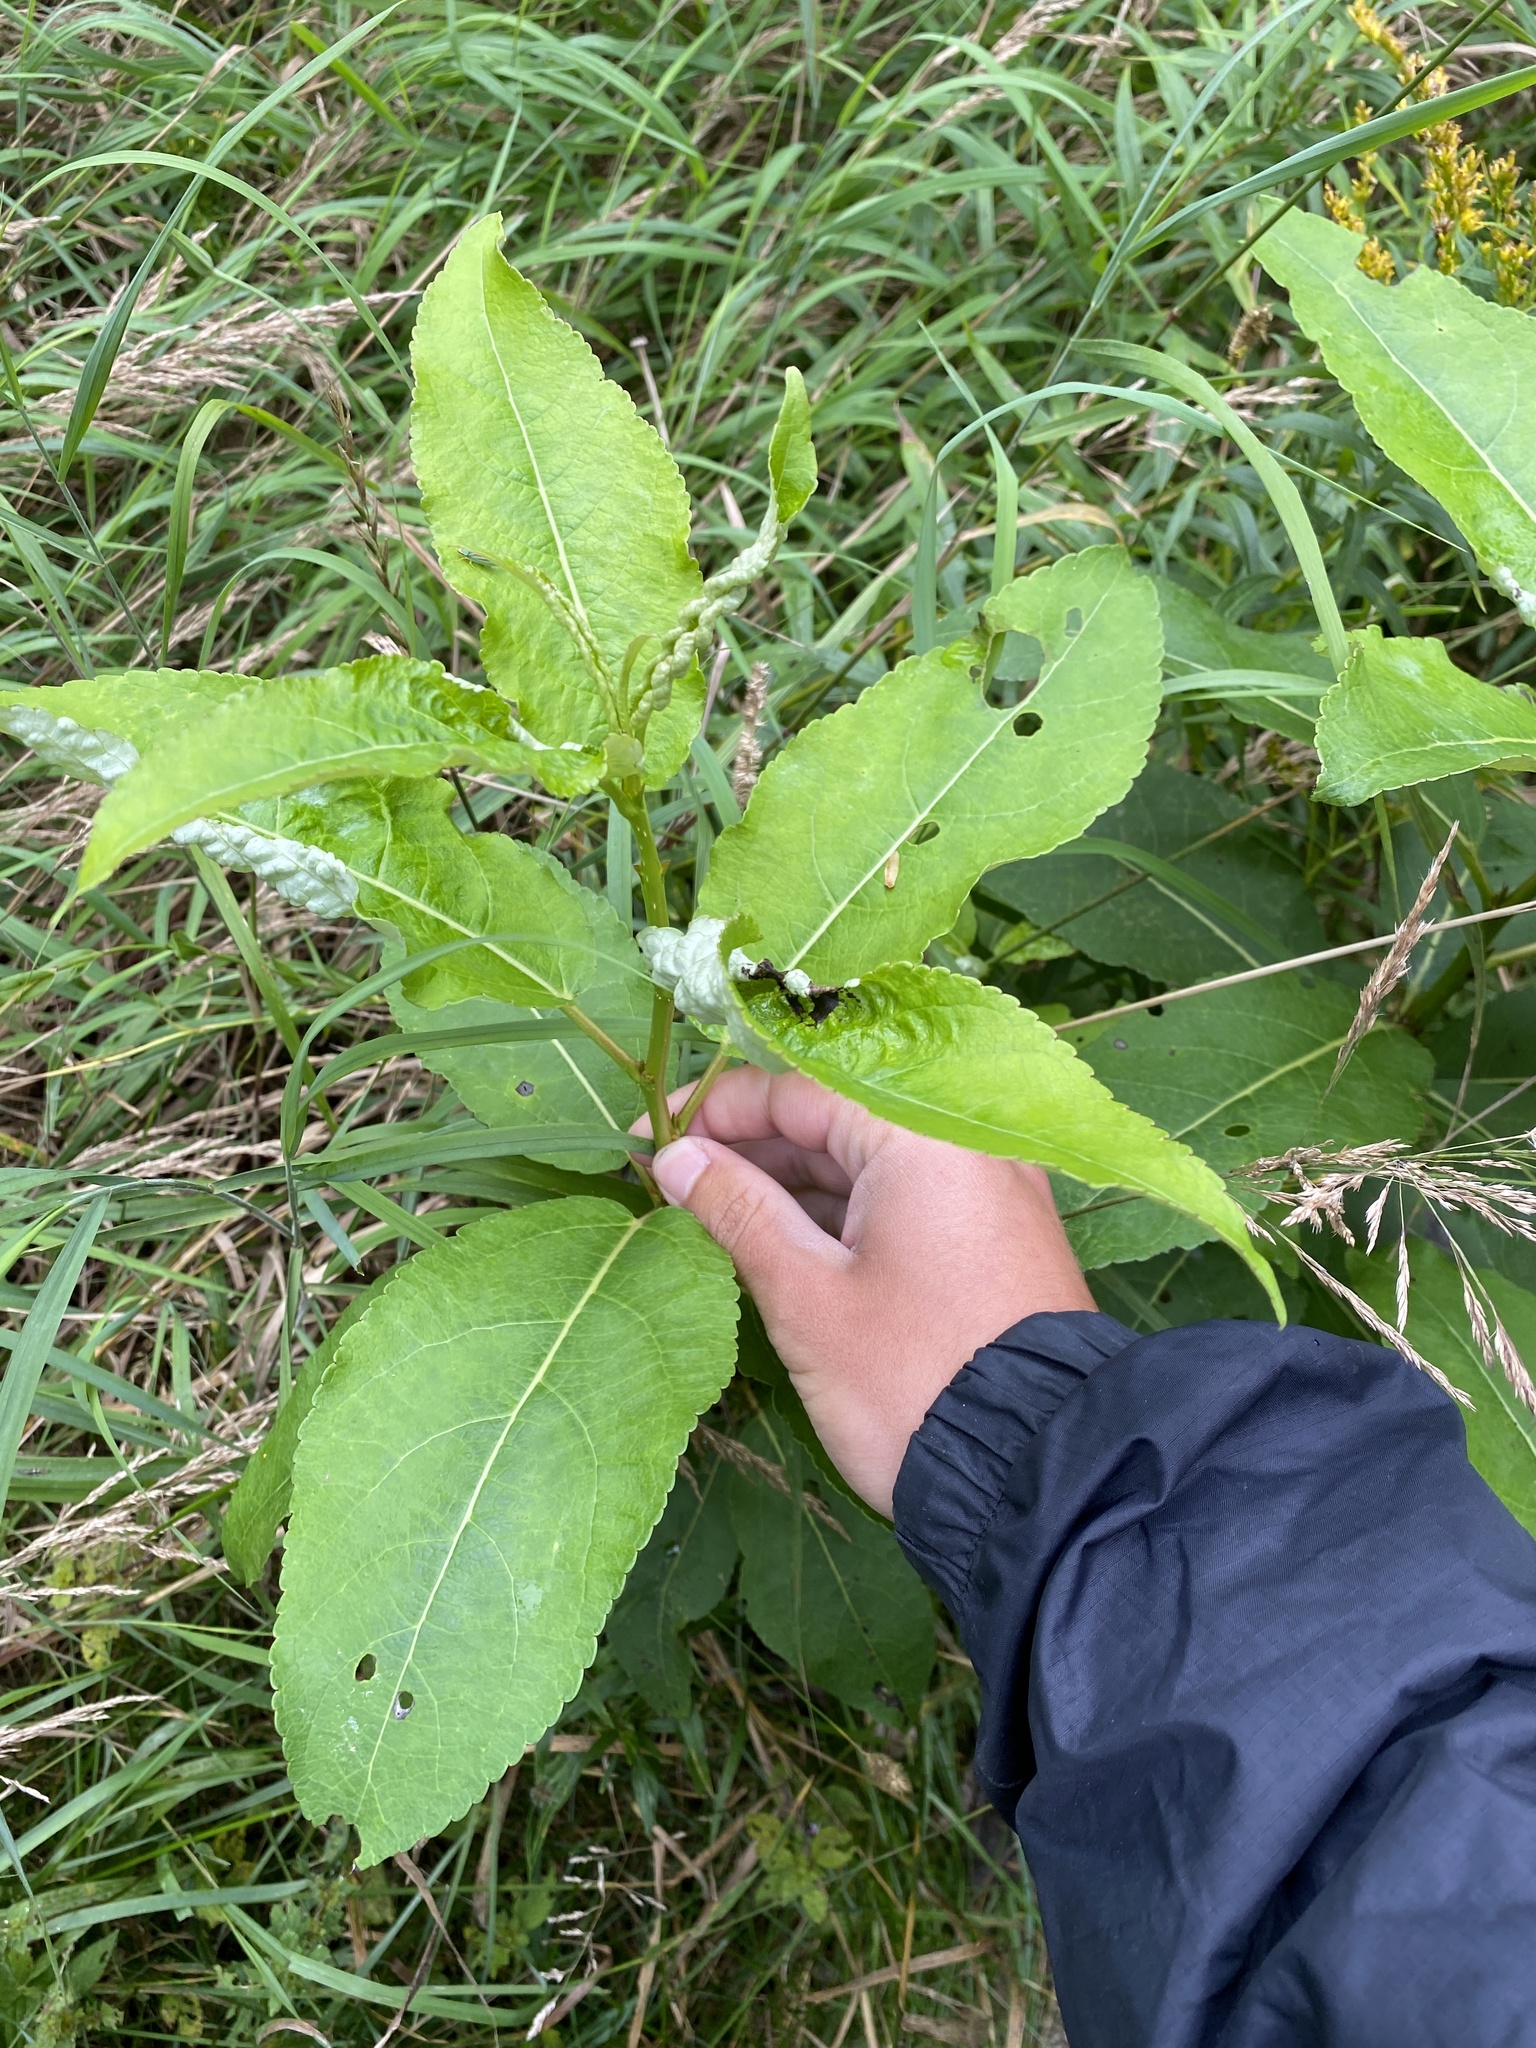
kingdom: Plantae
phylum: Tracheophyta
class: Magnoliopsida
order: Malpighiales
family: Salicaceae
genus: Populus
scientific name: Populus balsamifera
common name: Balsam poplar
